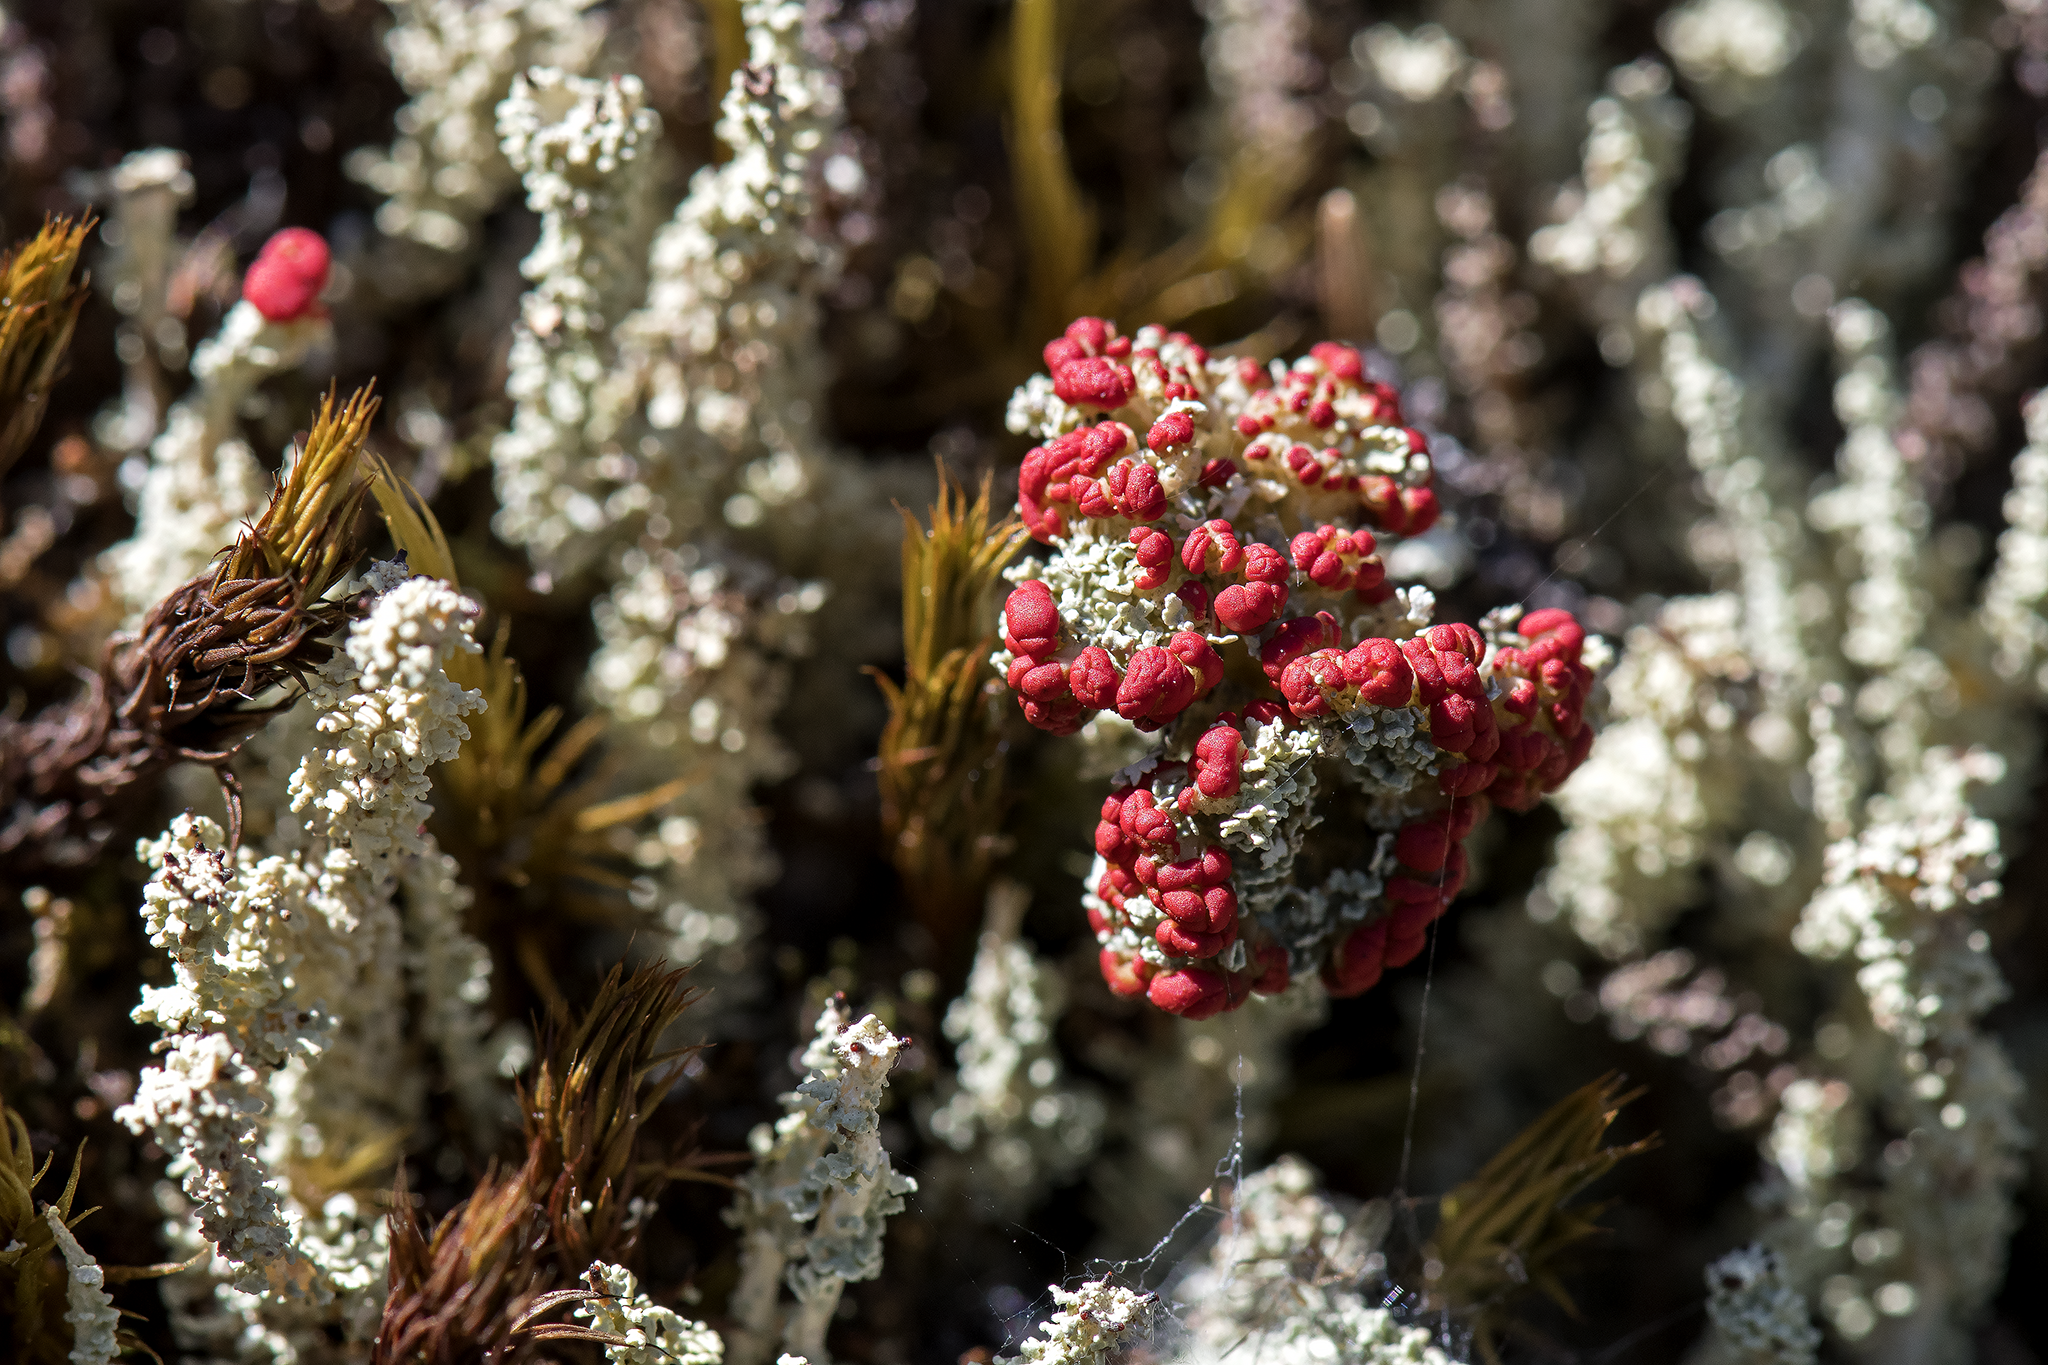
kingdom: Fungi
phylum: Ascomycota
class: Lecanoromycetes
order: Lecanorales
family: Cladoniaceae
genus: Cladonia
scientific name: Cladonia bellidiflora
